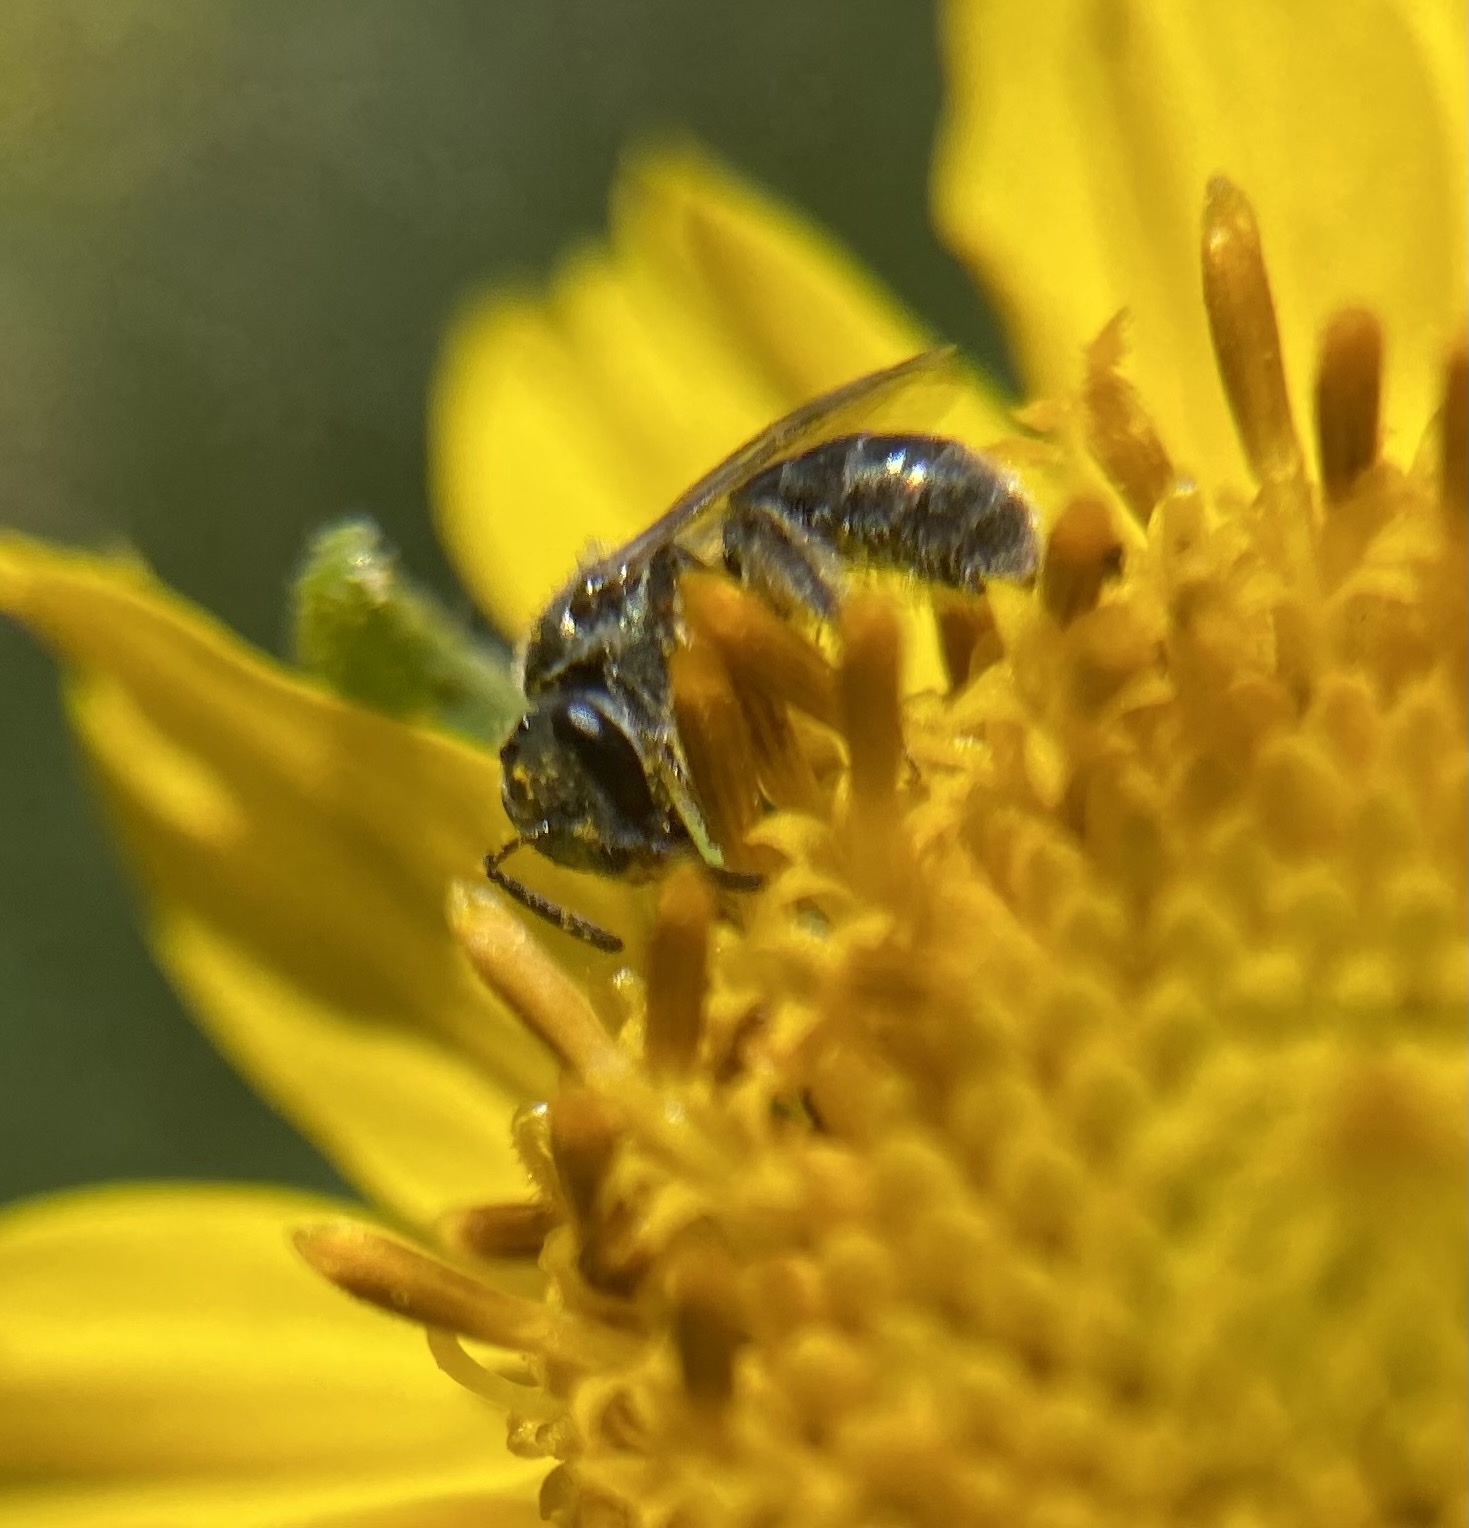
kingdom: Animalia
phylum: Arthropoda
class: Insecta
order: Hymenoptera
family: Halictidae
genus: Dialictus
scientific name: Dialictus
